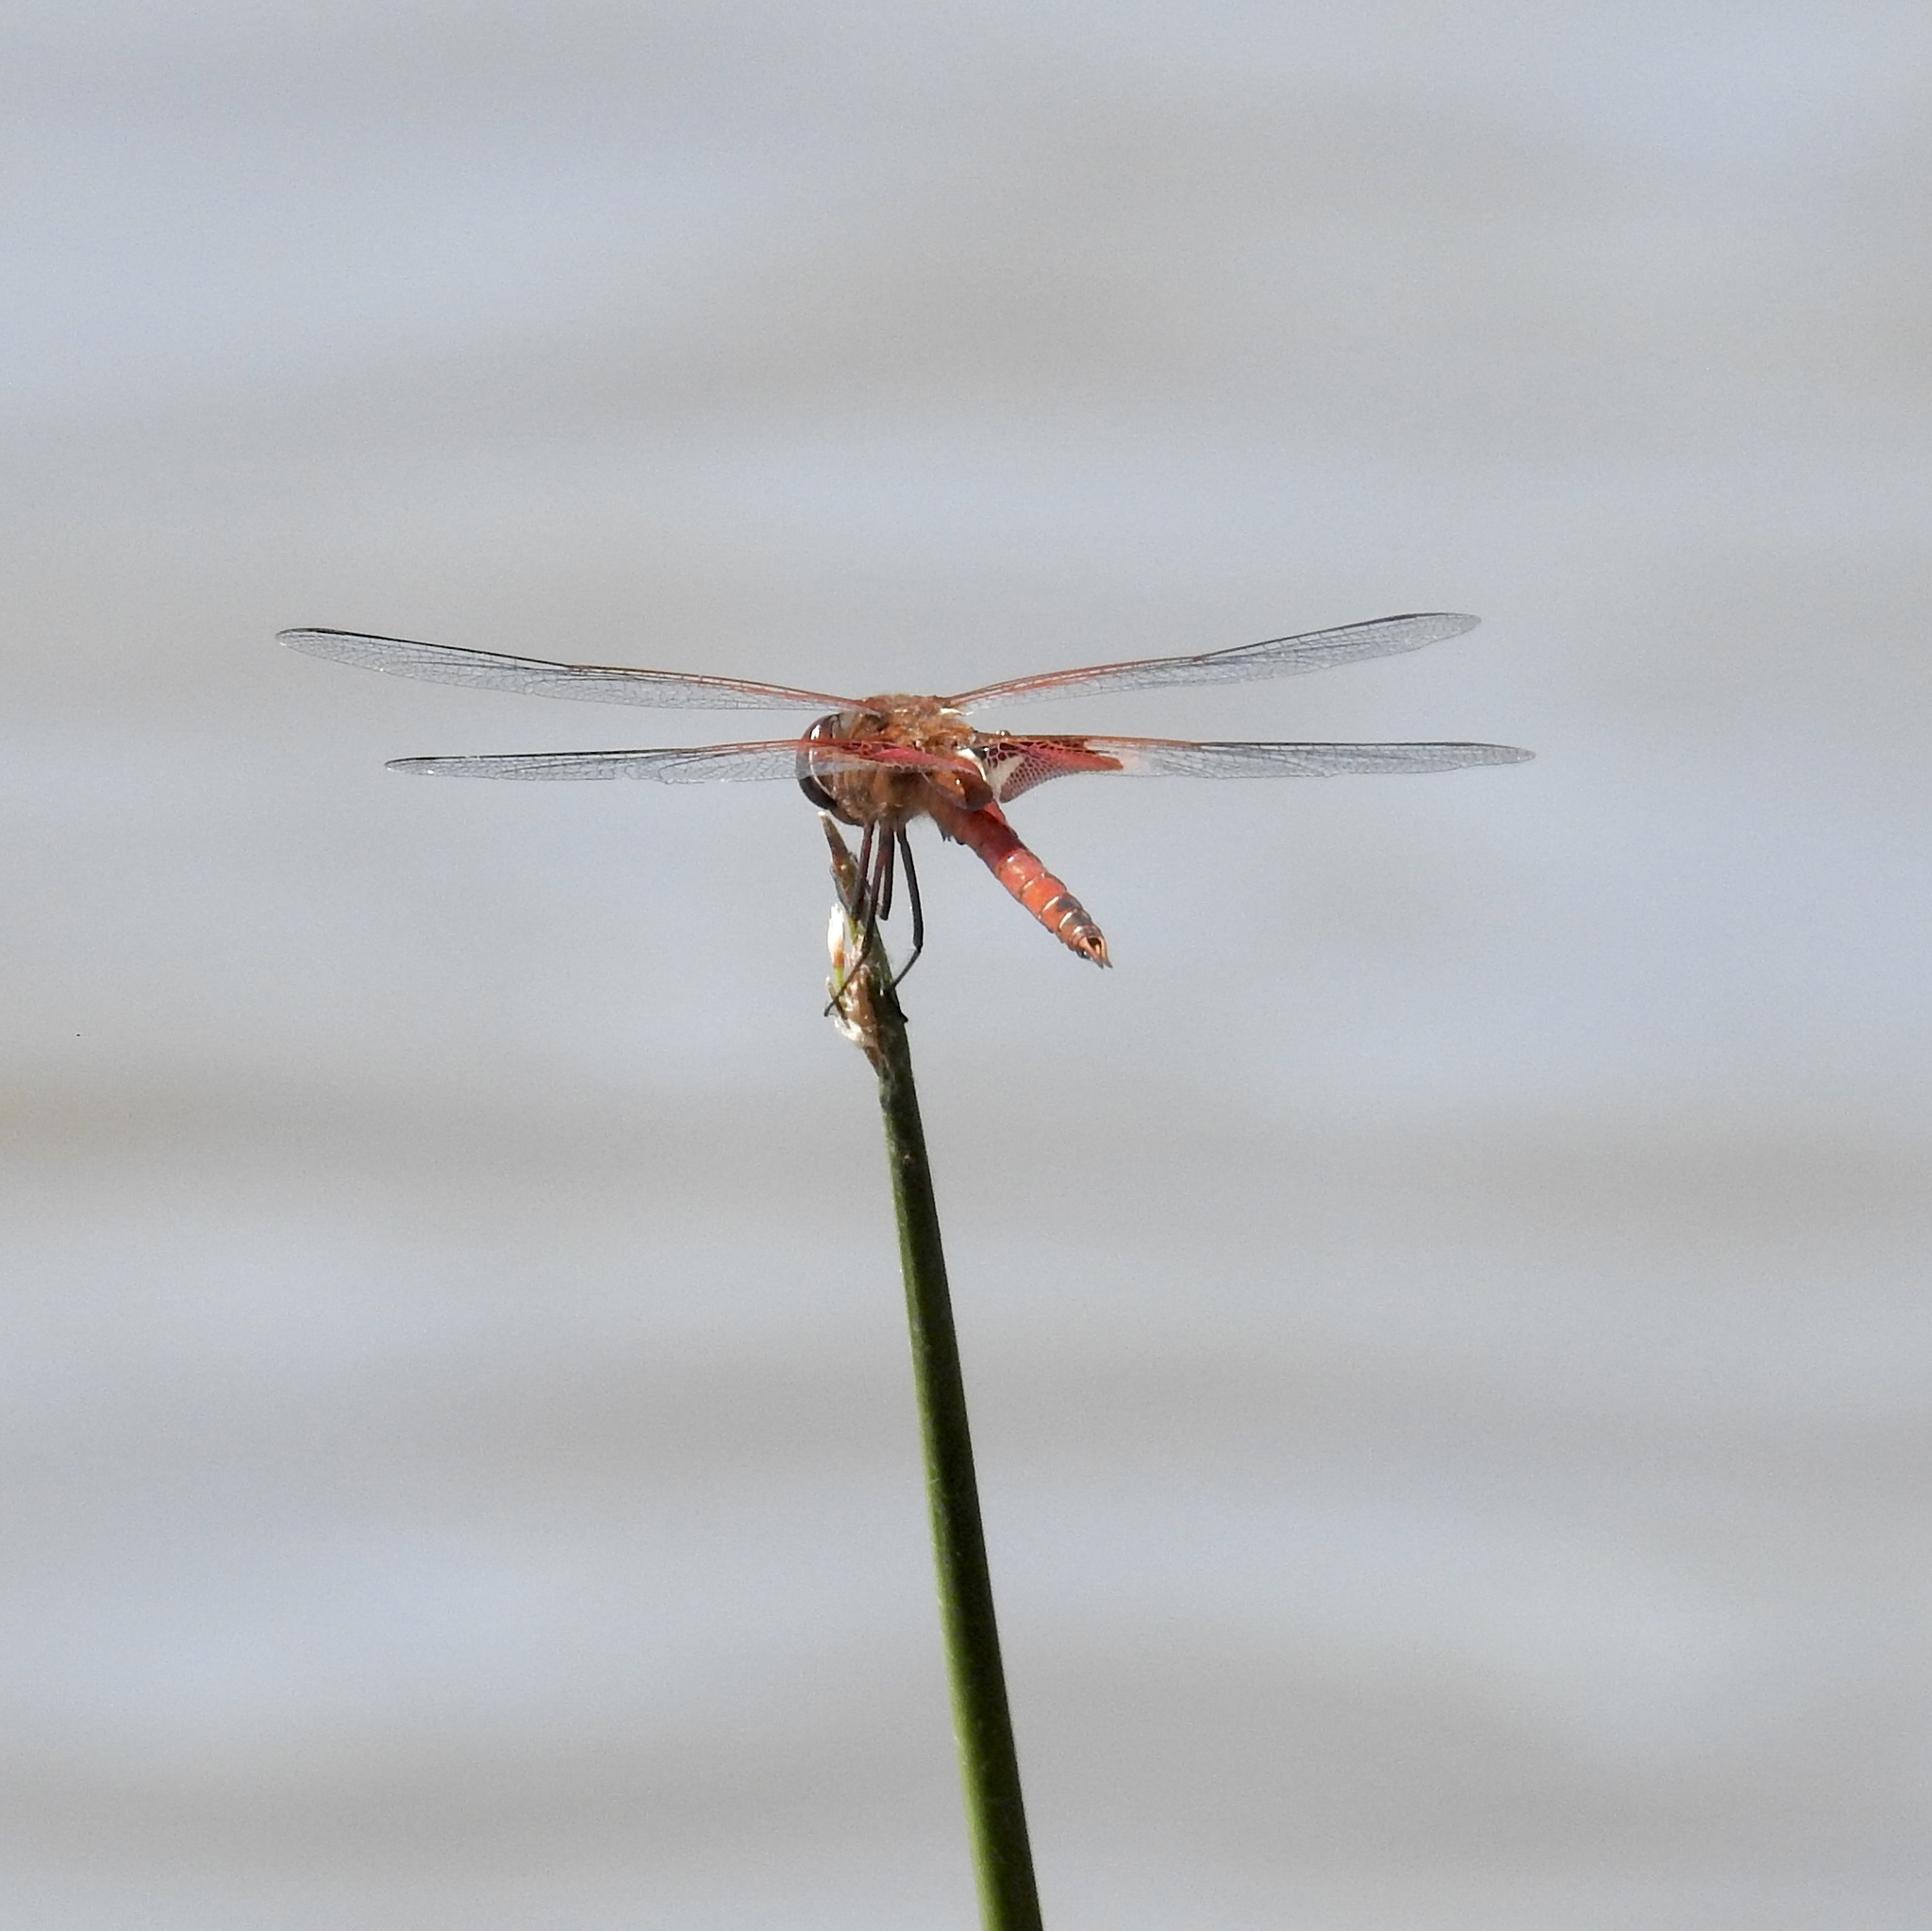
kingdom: Animalia
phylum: Arthropoda
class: Insecta
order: Odonata
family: Libellulidae
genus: Tramea
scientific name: Tramea onusta
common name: Red saddlebags
